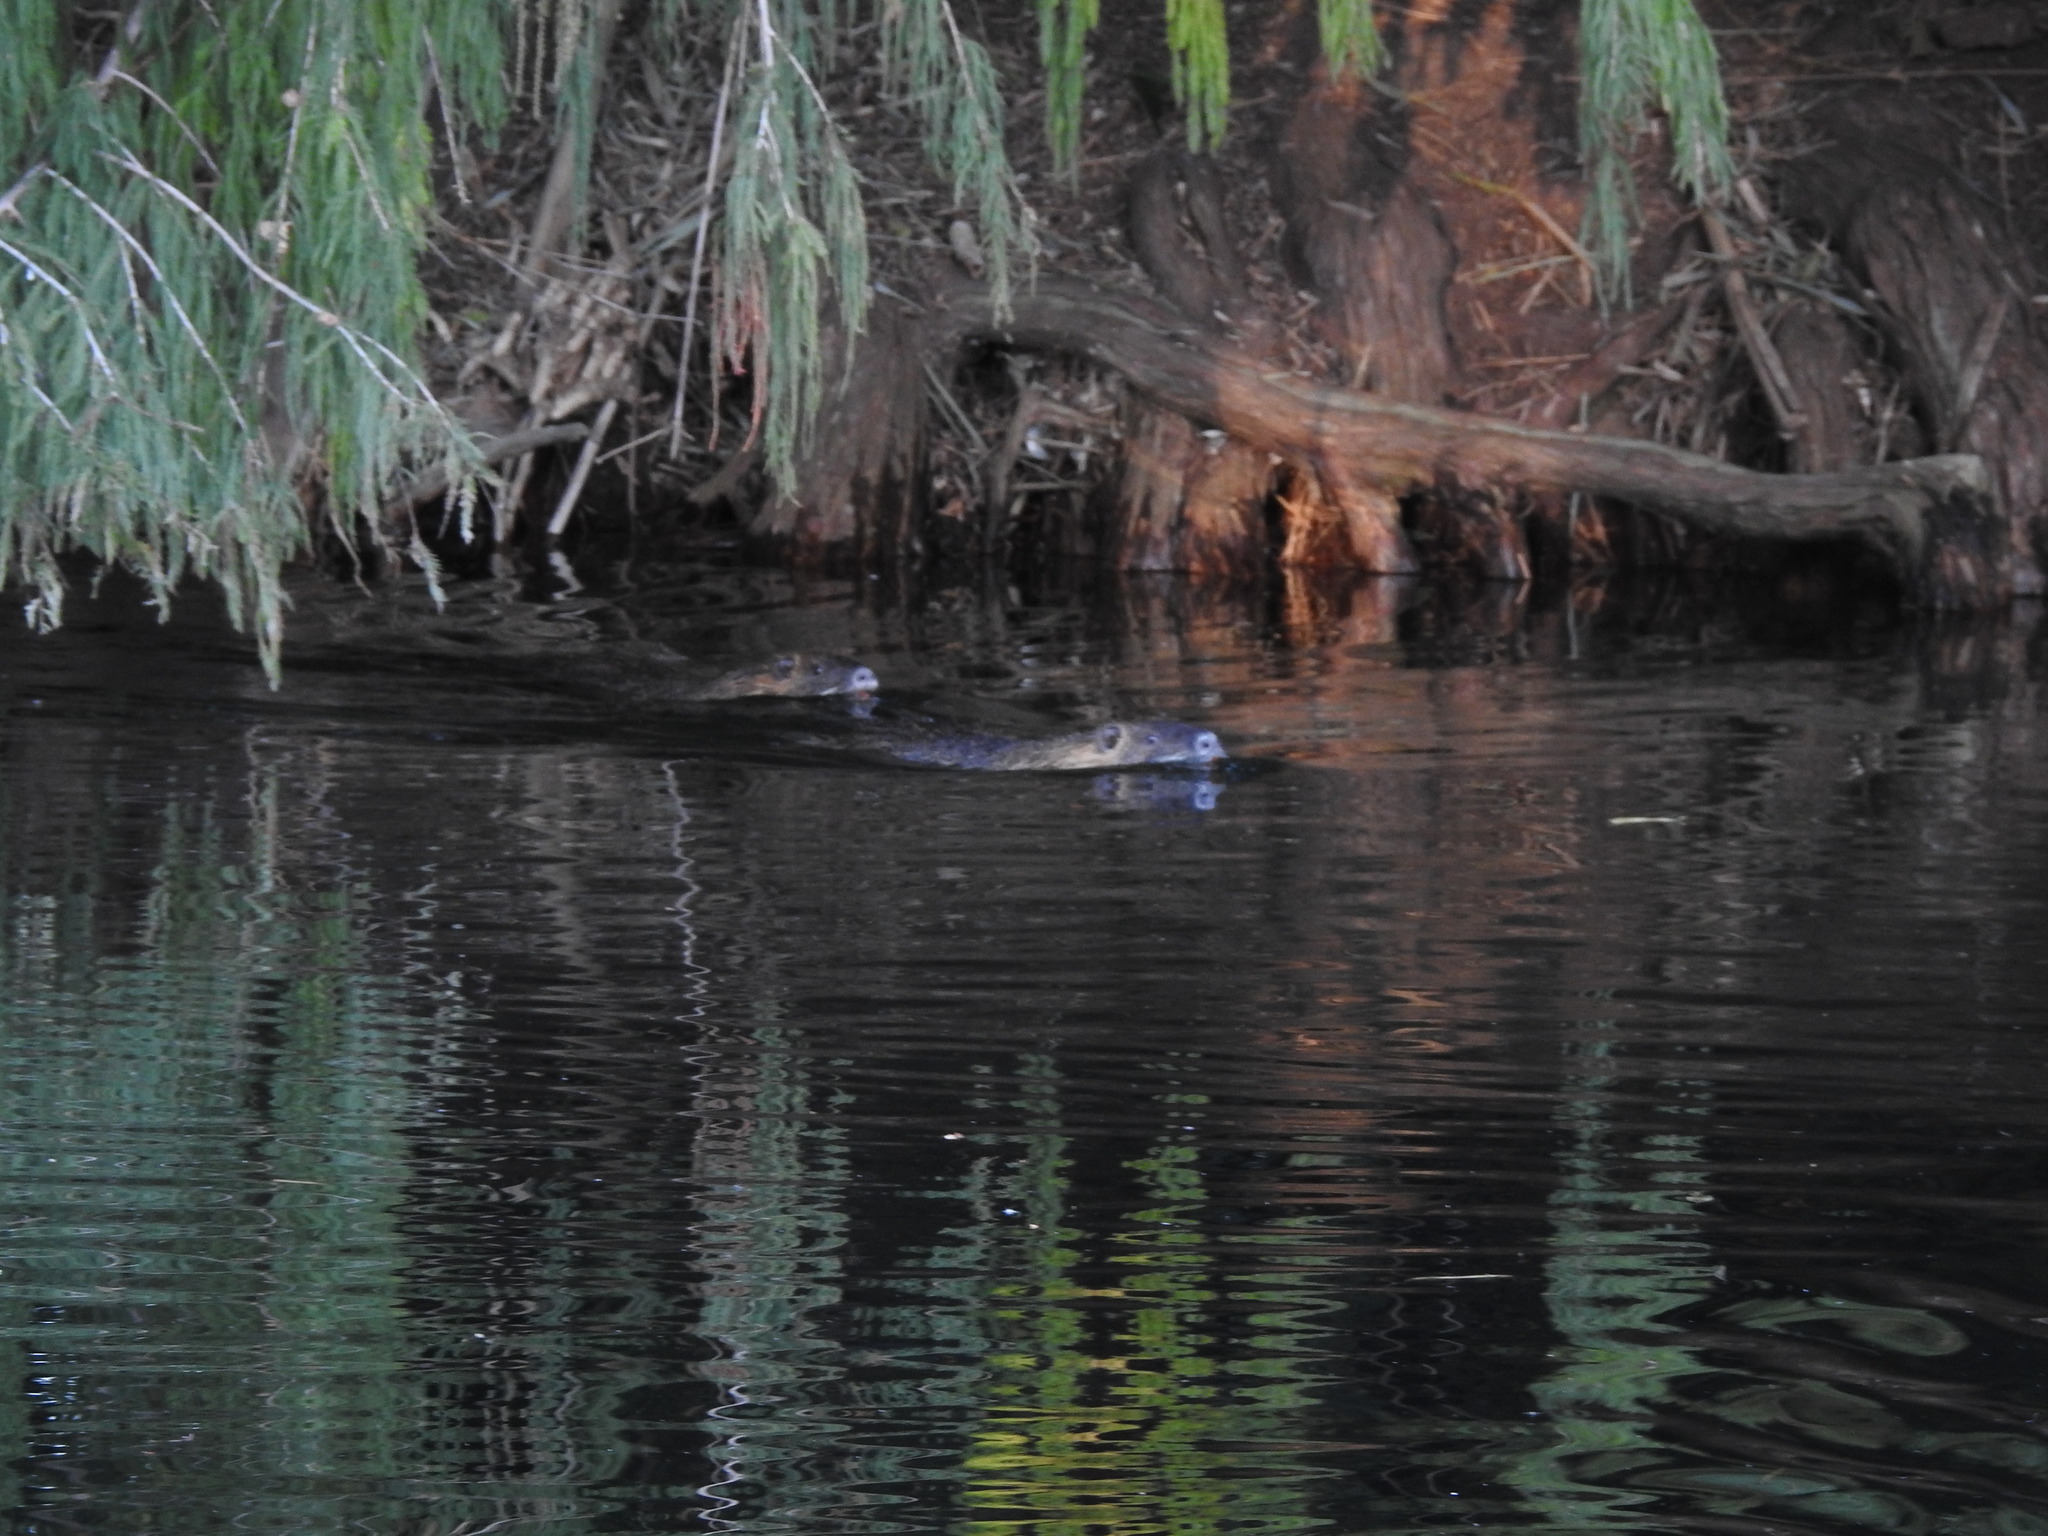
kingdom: Animalia
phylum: Chordata
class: Mammalia
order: Rodentia
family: Myocastoridae
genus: Myocastor
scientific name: Myocastor coypus
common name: Coypu
